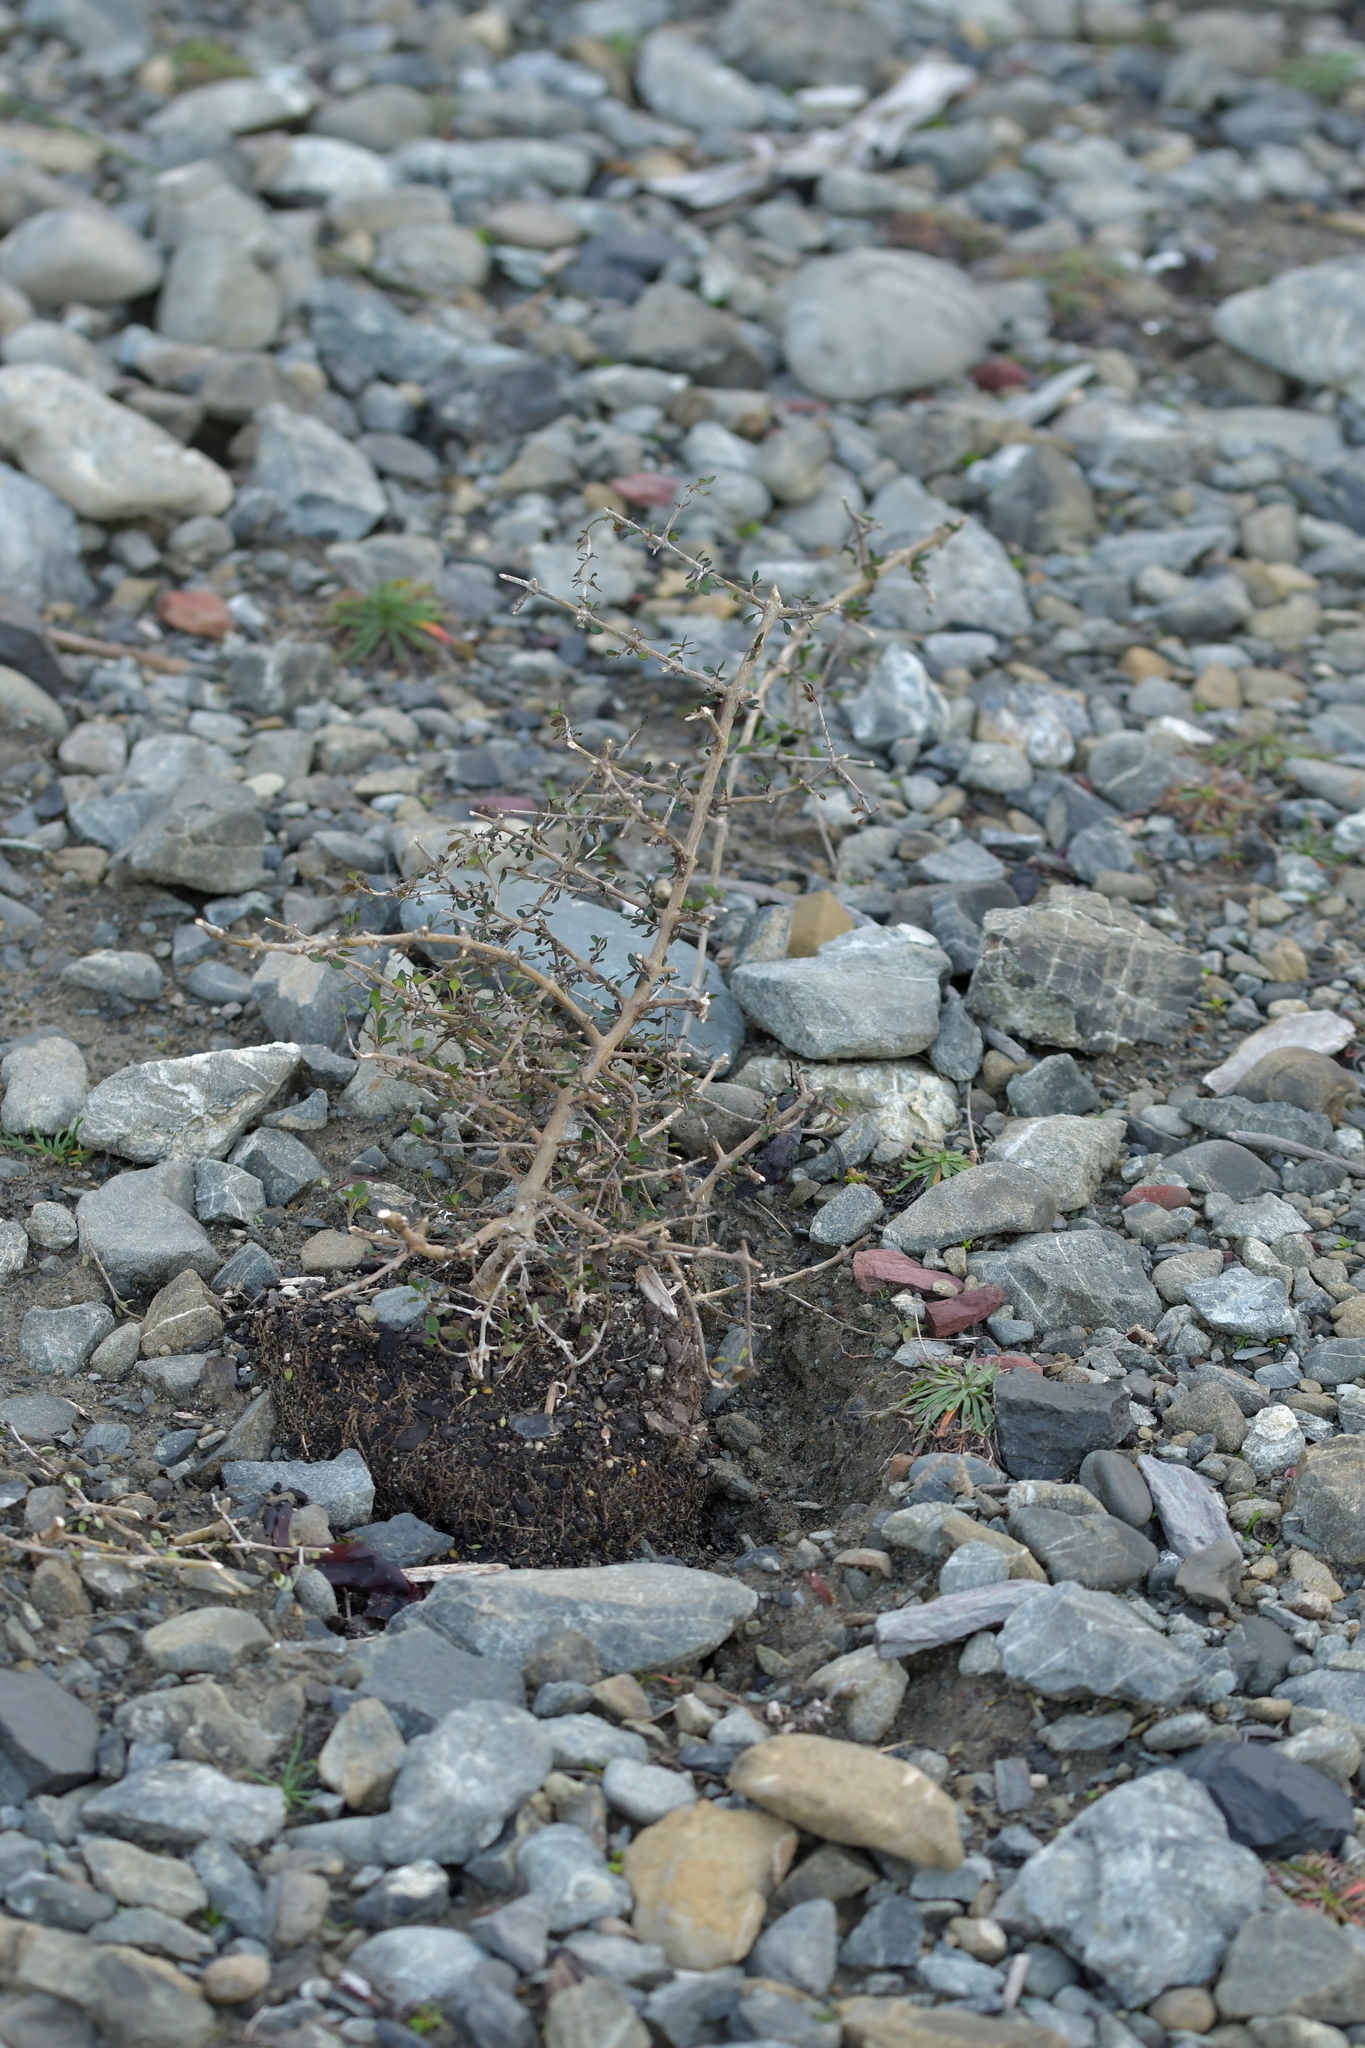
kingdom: Plantae
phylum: Tracheophyta
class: Magnoliopsida
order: Gentianales
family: Rubiaceae
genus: Coprosma
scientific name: Coprosma propinqua
